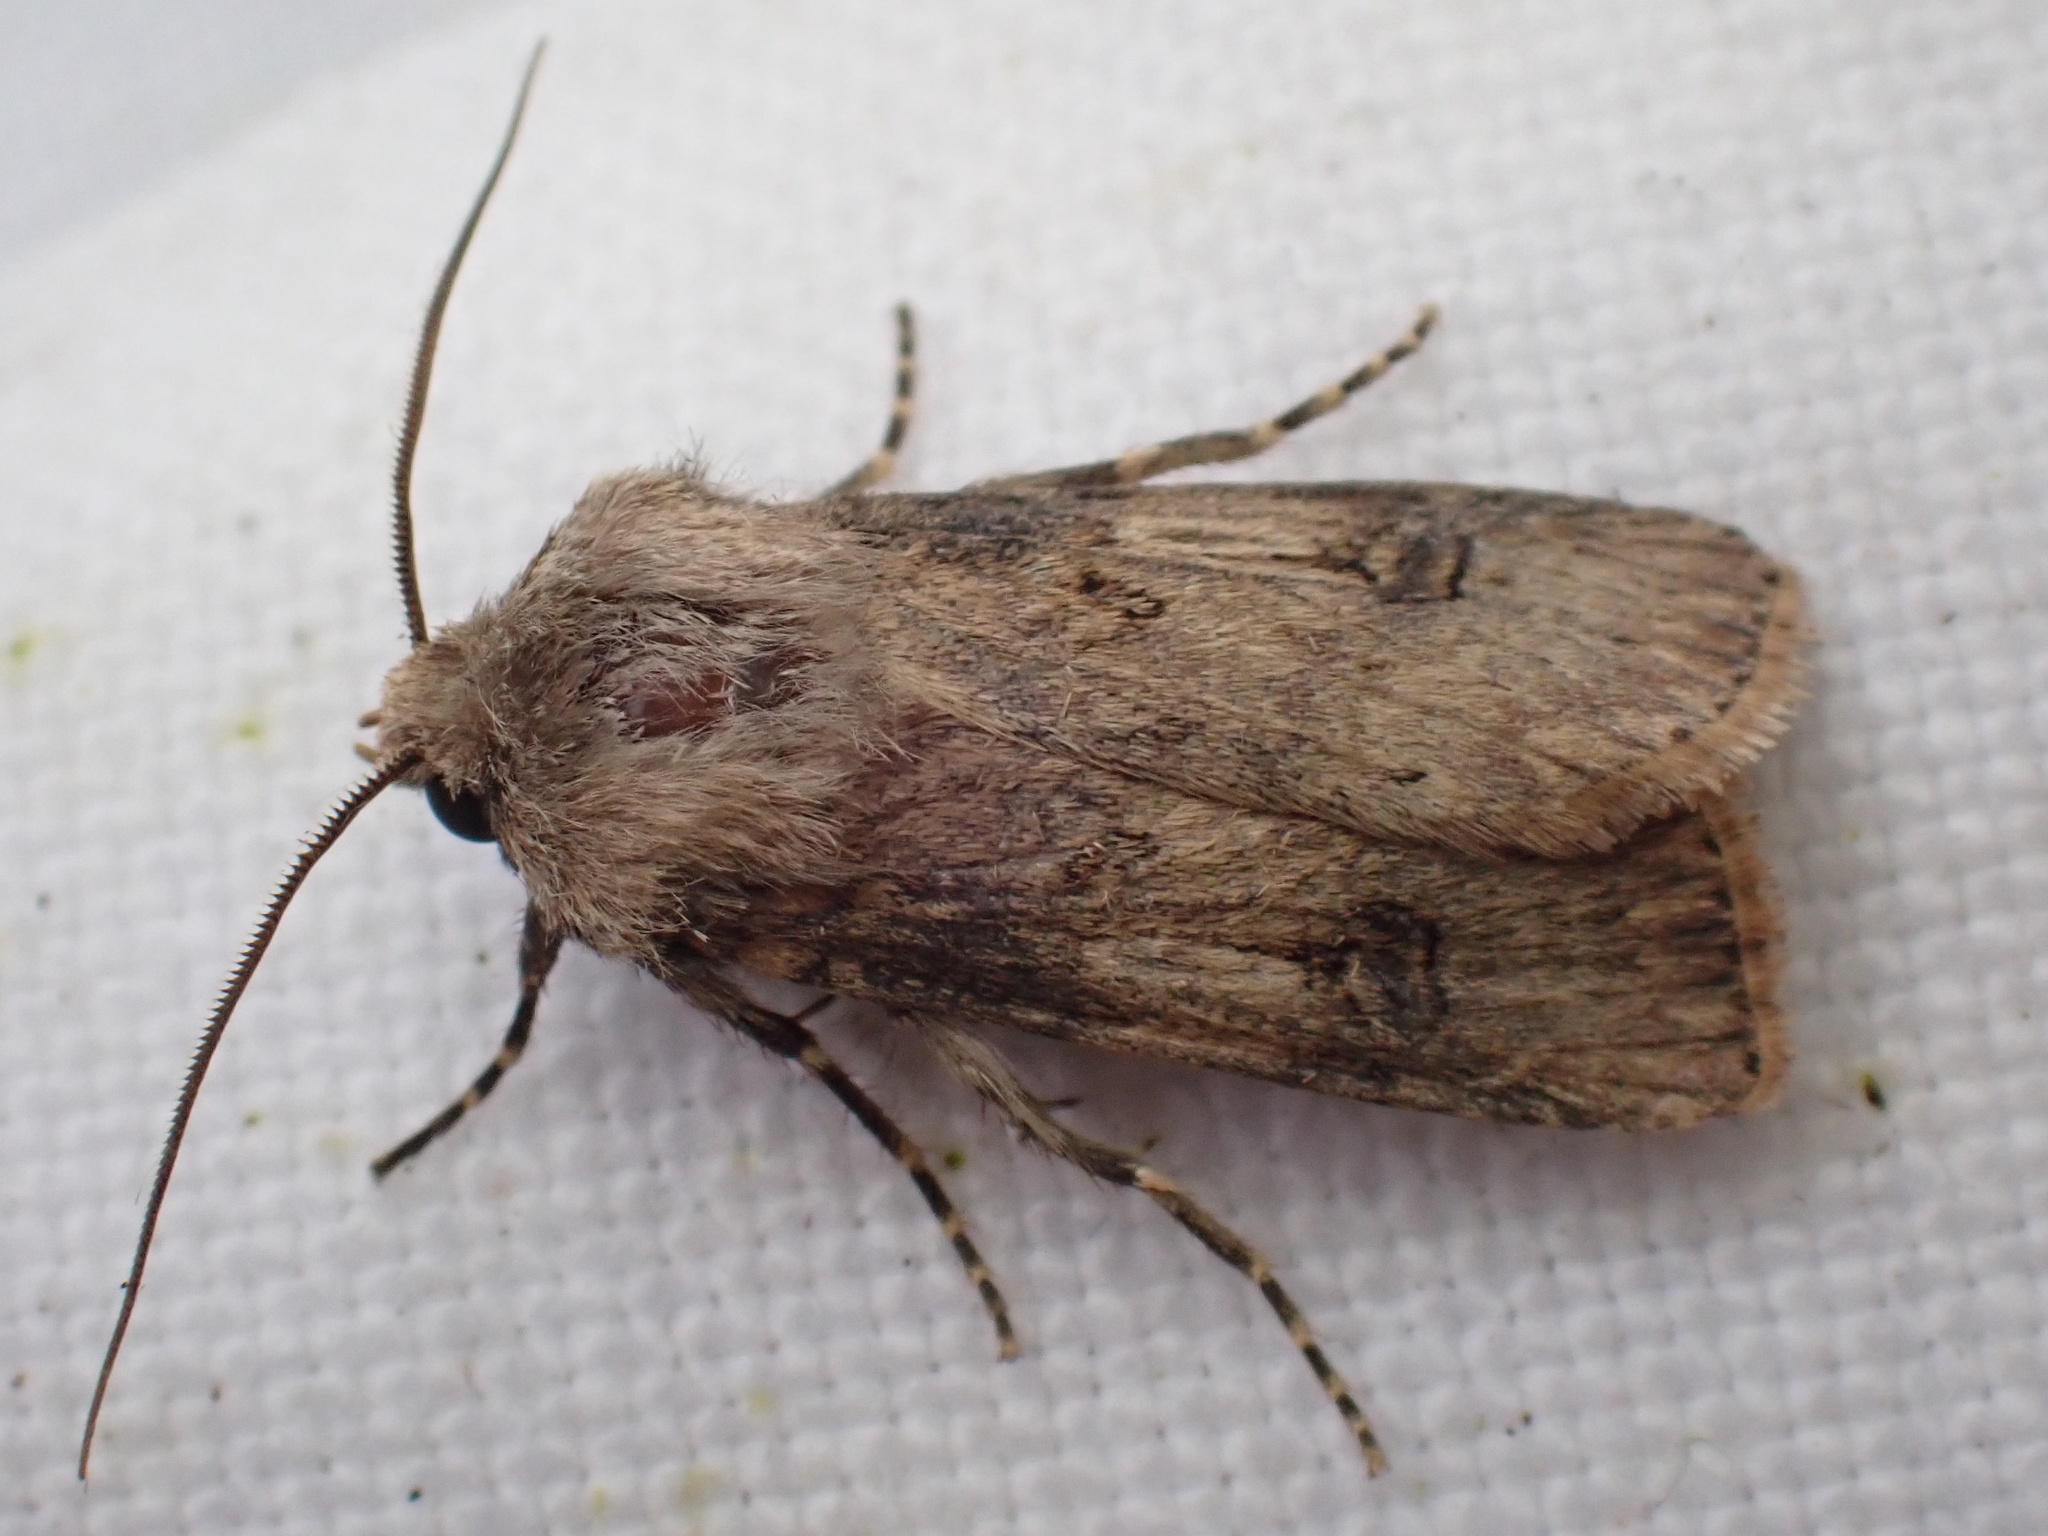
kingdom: Animalia
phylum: Arthropoda
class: Insecta
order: Lepidoptera
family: Noctuidae
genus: Agrotis
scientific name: Agrotis puta
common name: Shuttle-shaped dart
